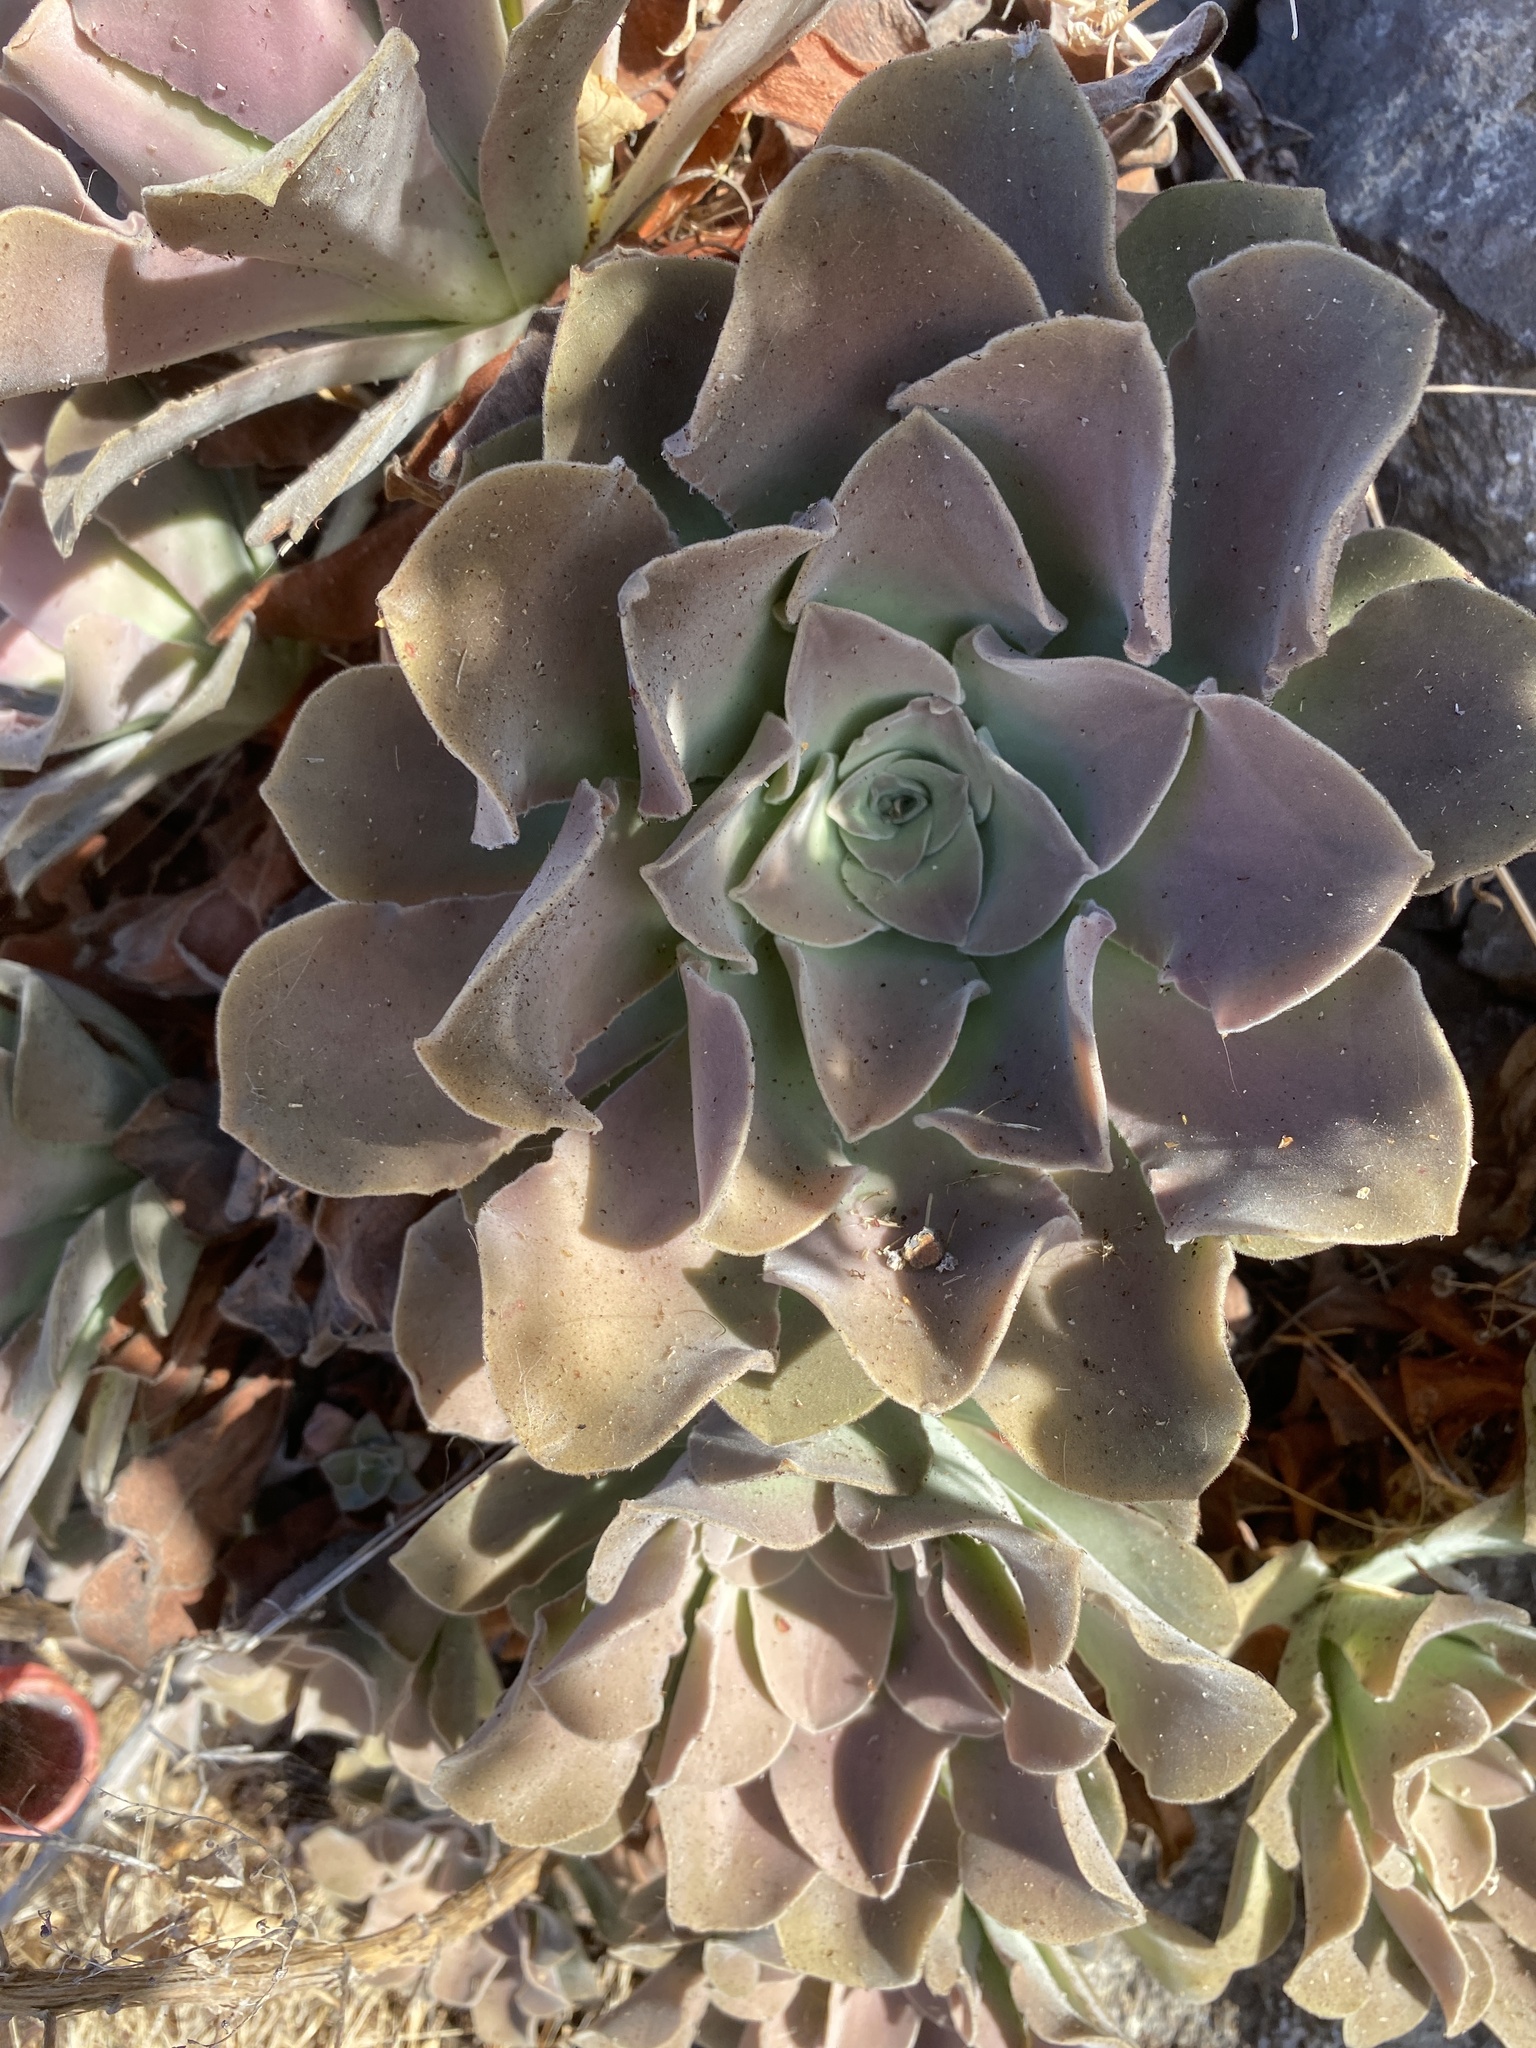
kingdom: Plantae
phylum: Tracheophyta
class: Magnoliopsida
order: Saxifragales
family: Crassulaceae
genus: Aeonium
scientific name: Aeonium canariense
